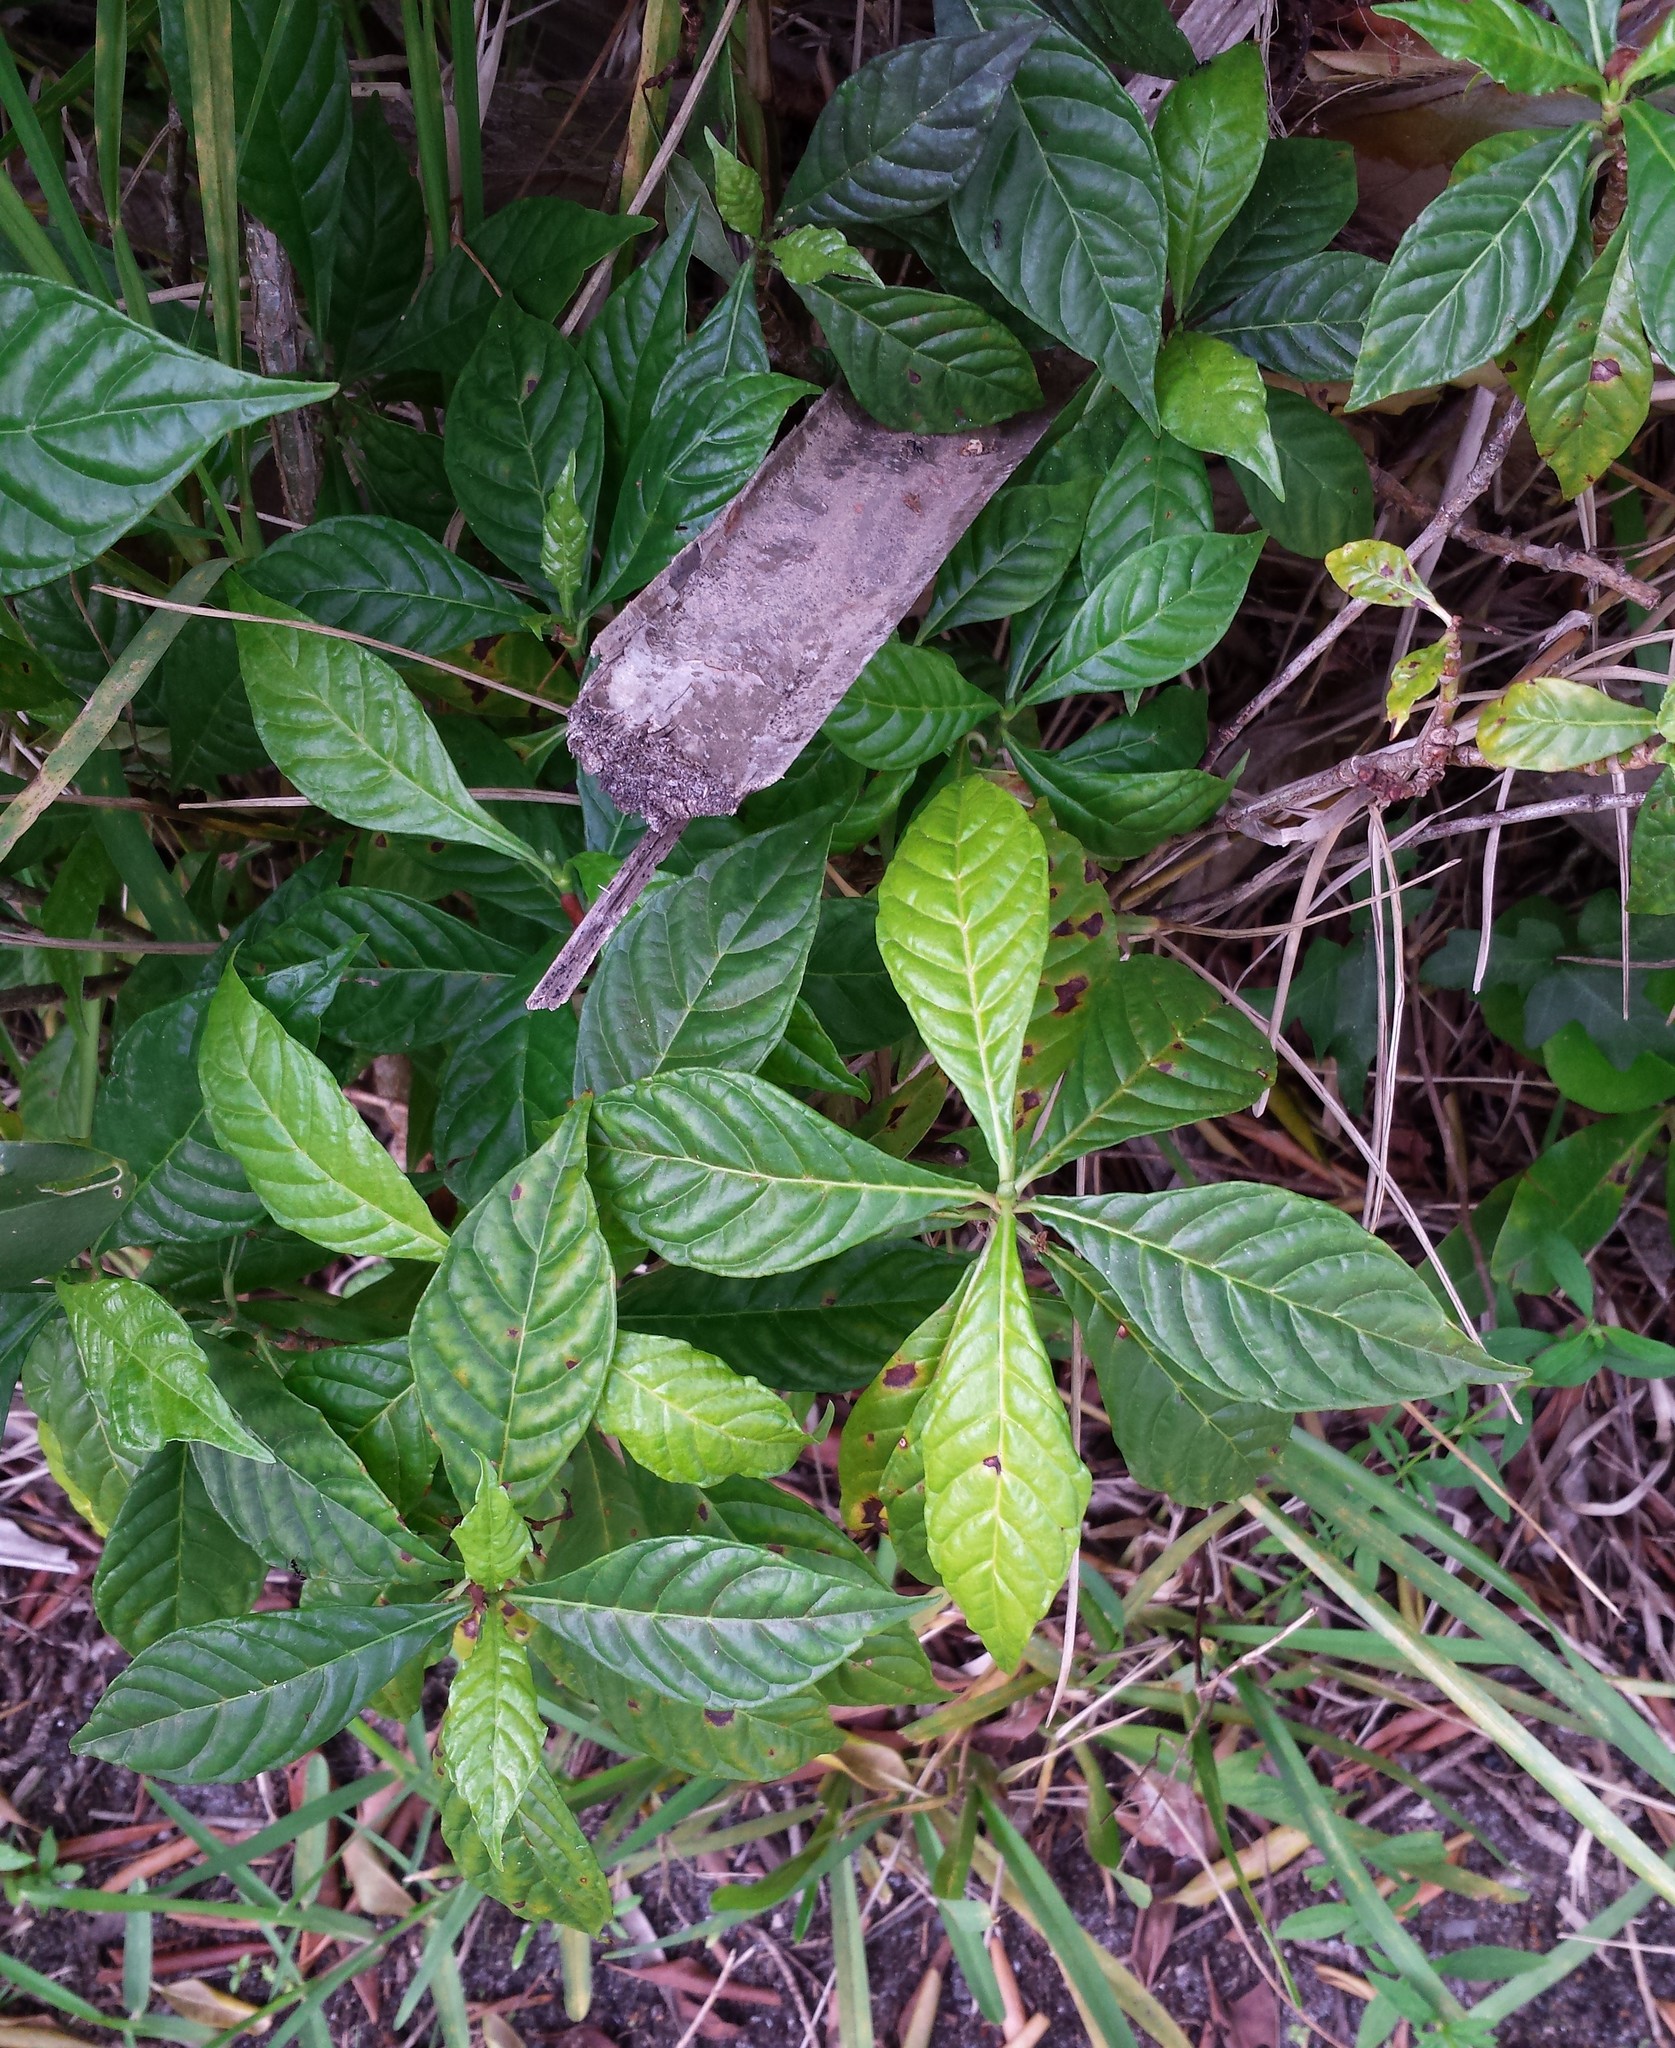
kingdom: Plantae
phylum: Tracheophyta
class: Magnoliopsida
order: Gentianales
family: Rubiaceae
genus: Psychotria
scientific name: Psychotria nervosa
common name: Bastard cankerberry
